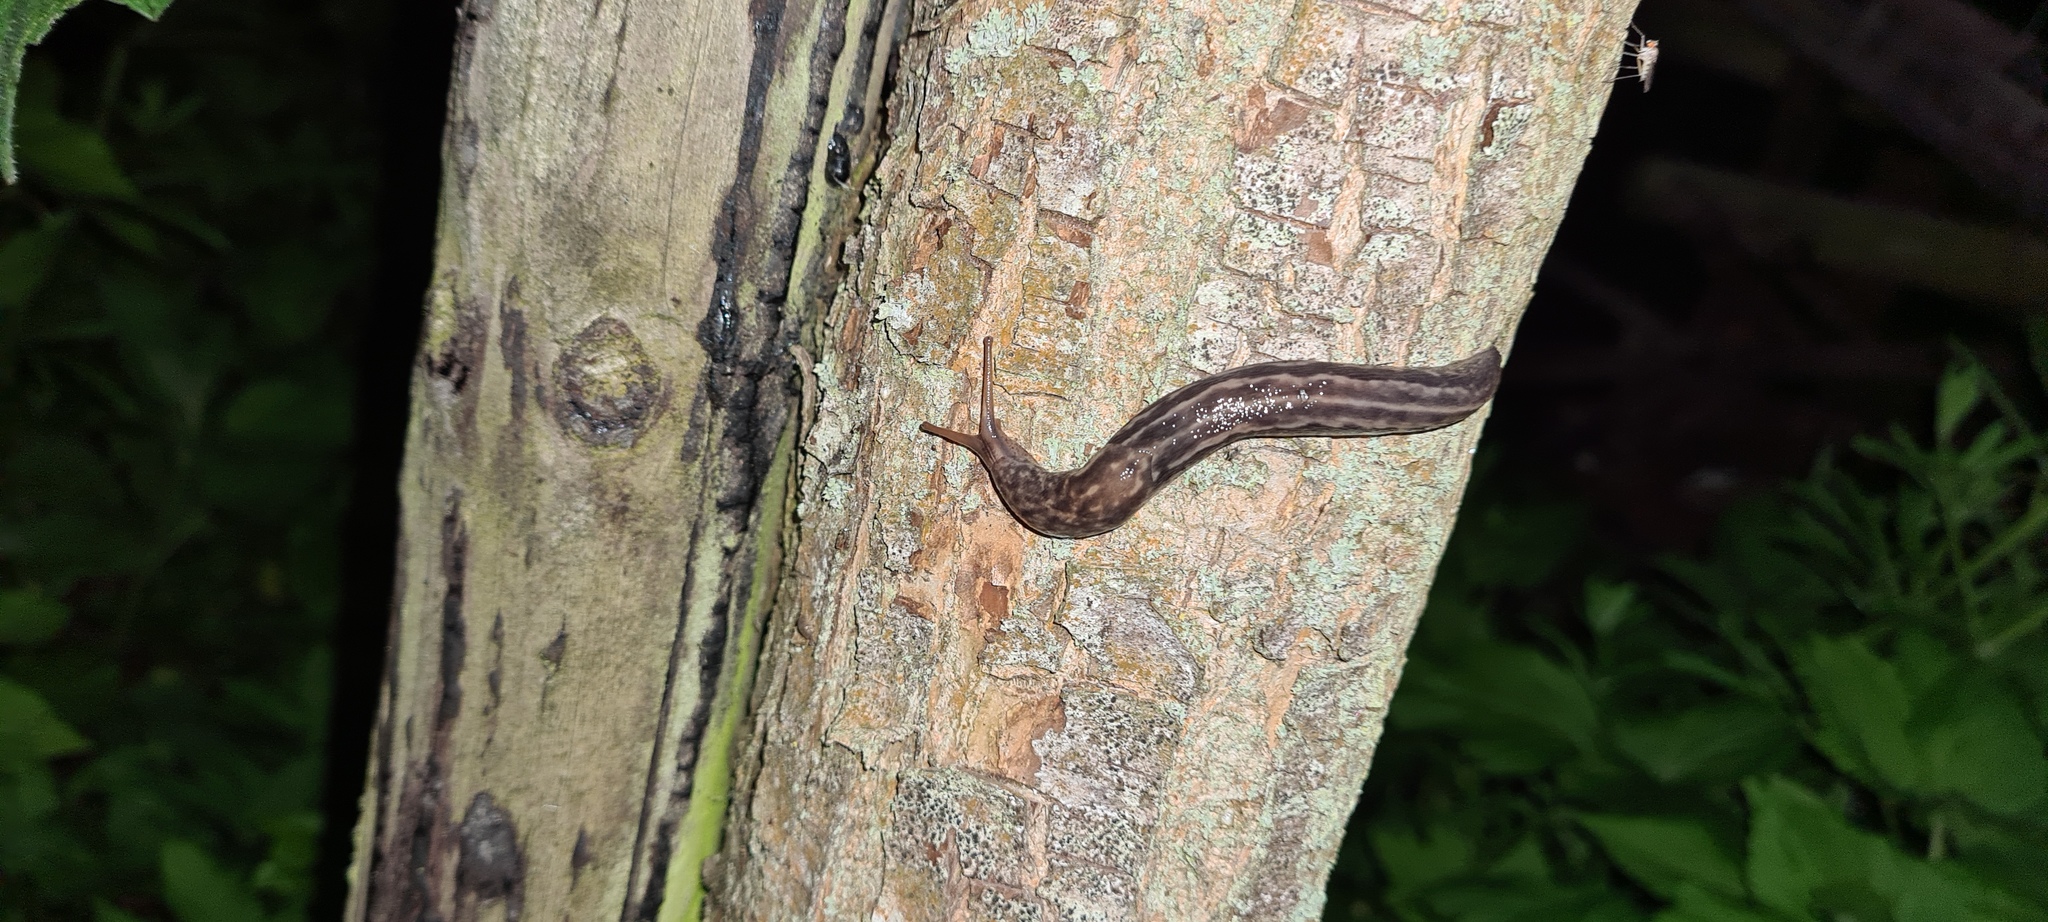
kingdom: Animalia
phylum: Mollusca
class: Gastropoda
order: Stylommatophora
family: Limacidae
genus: Limax
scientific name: Limax maximus
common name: Great grey slug
